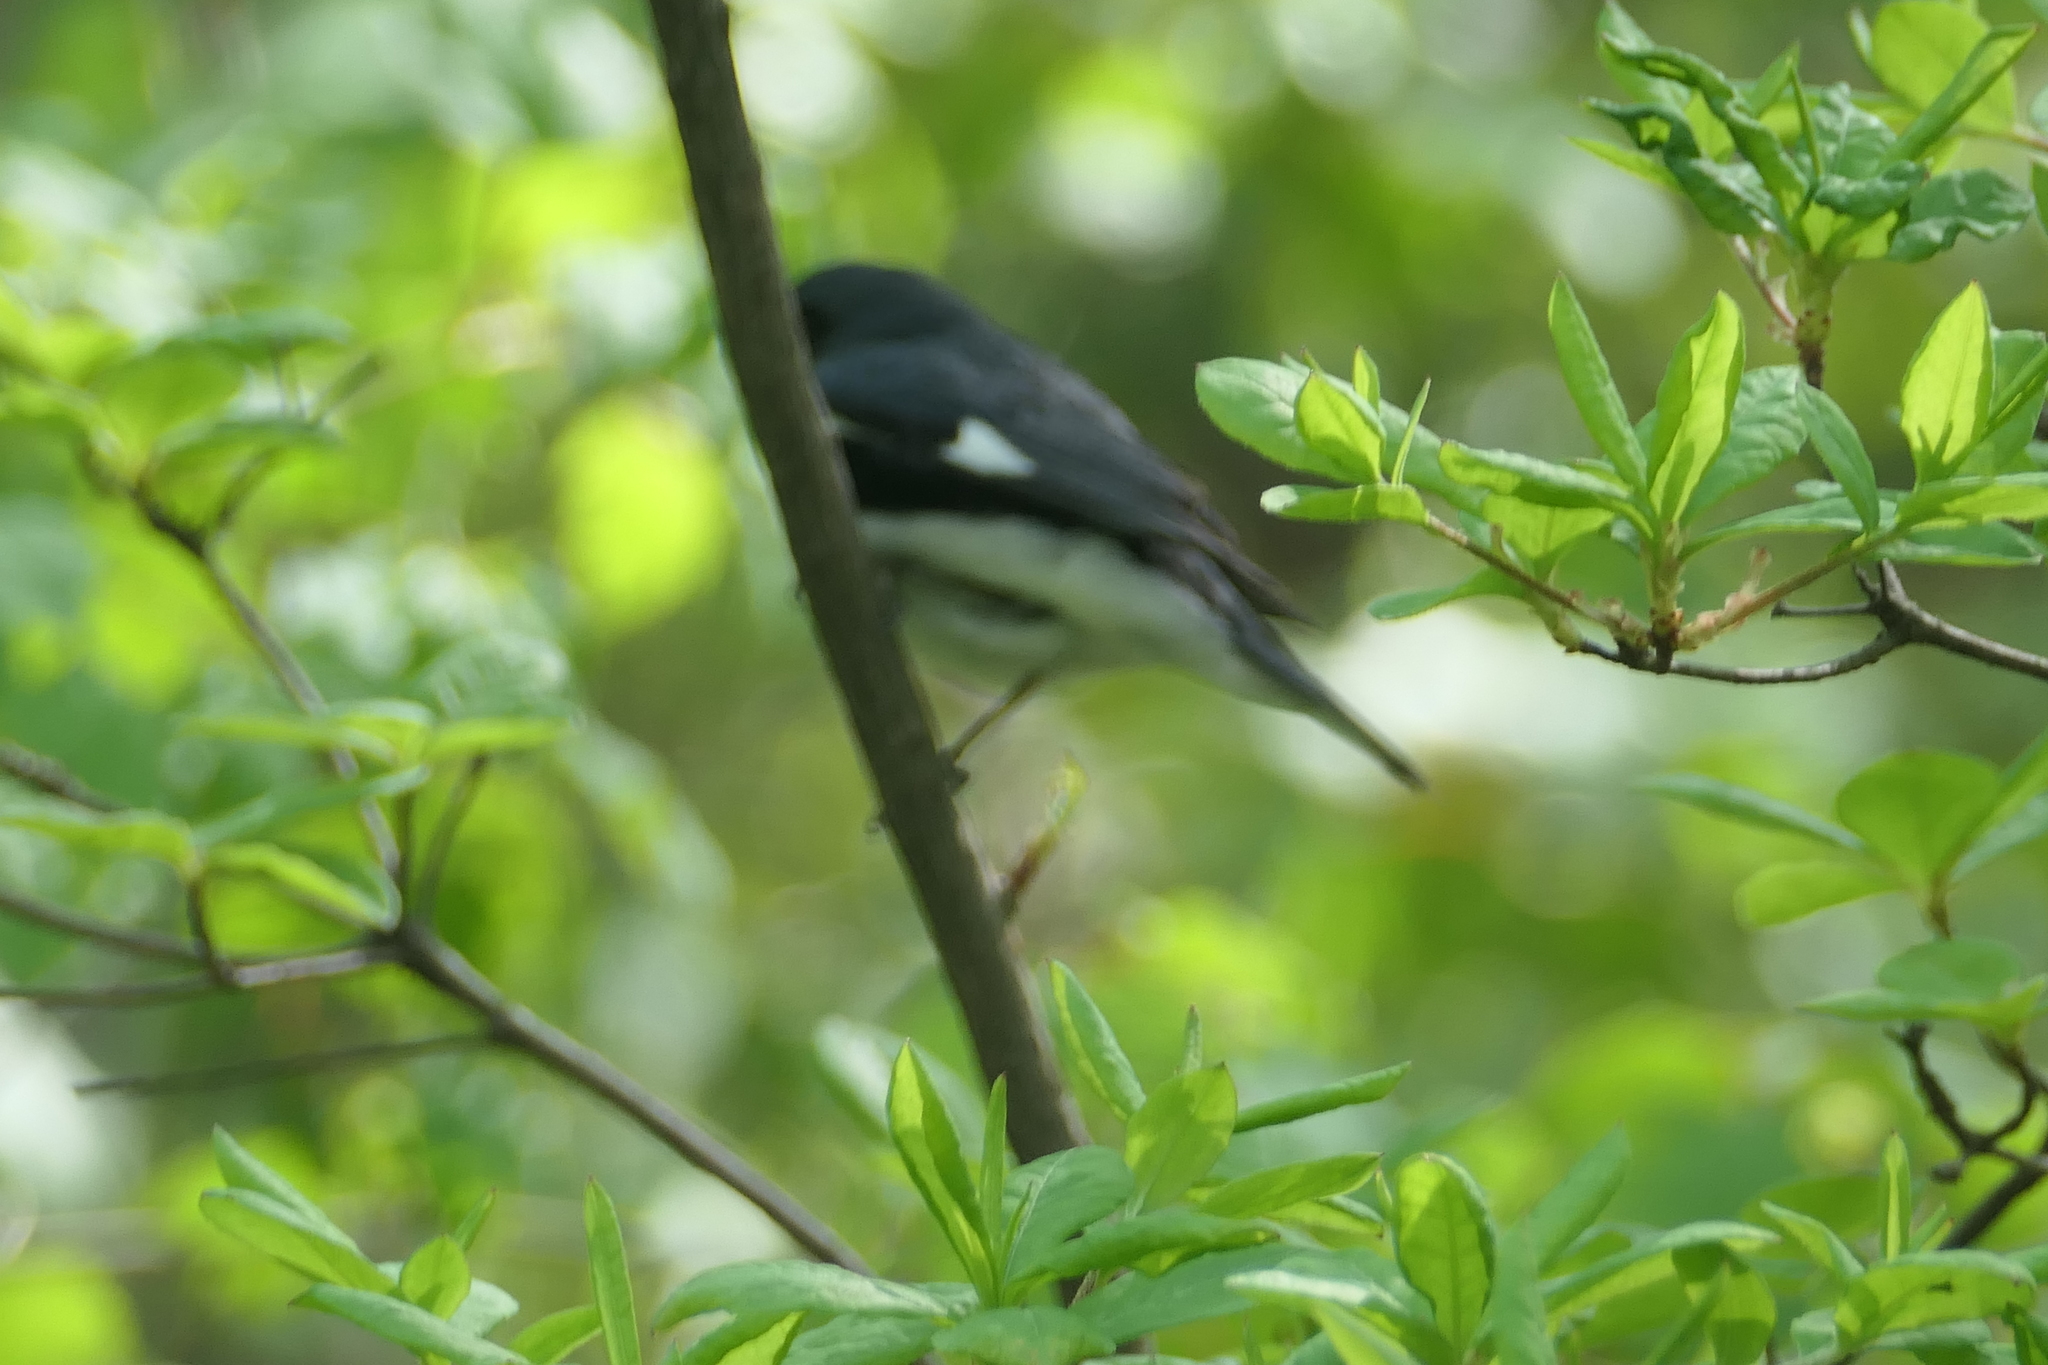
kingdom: Animalia
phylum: Chordata
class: Aves
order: Passeriformes
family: Parulidae
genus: Setophaga
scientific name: Setophaga caerulescens
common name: Black-throated blue warbler
